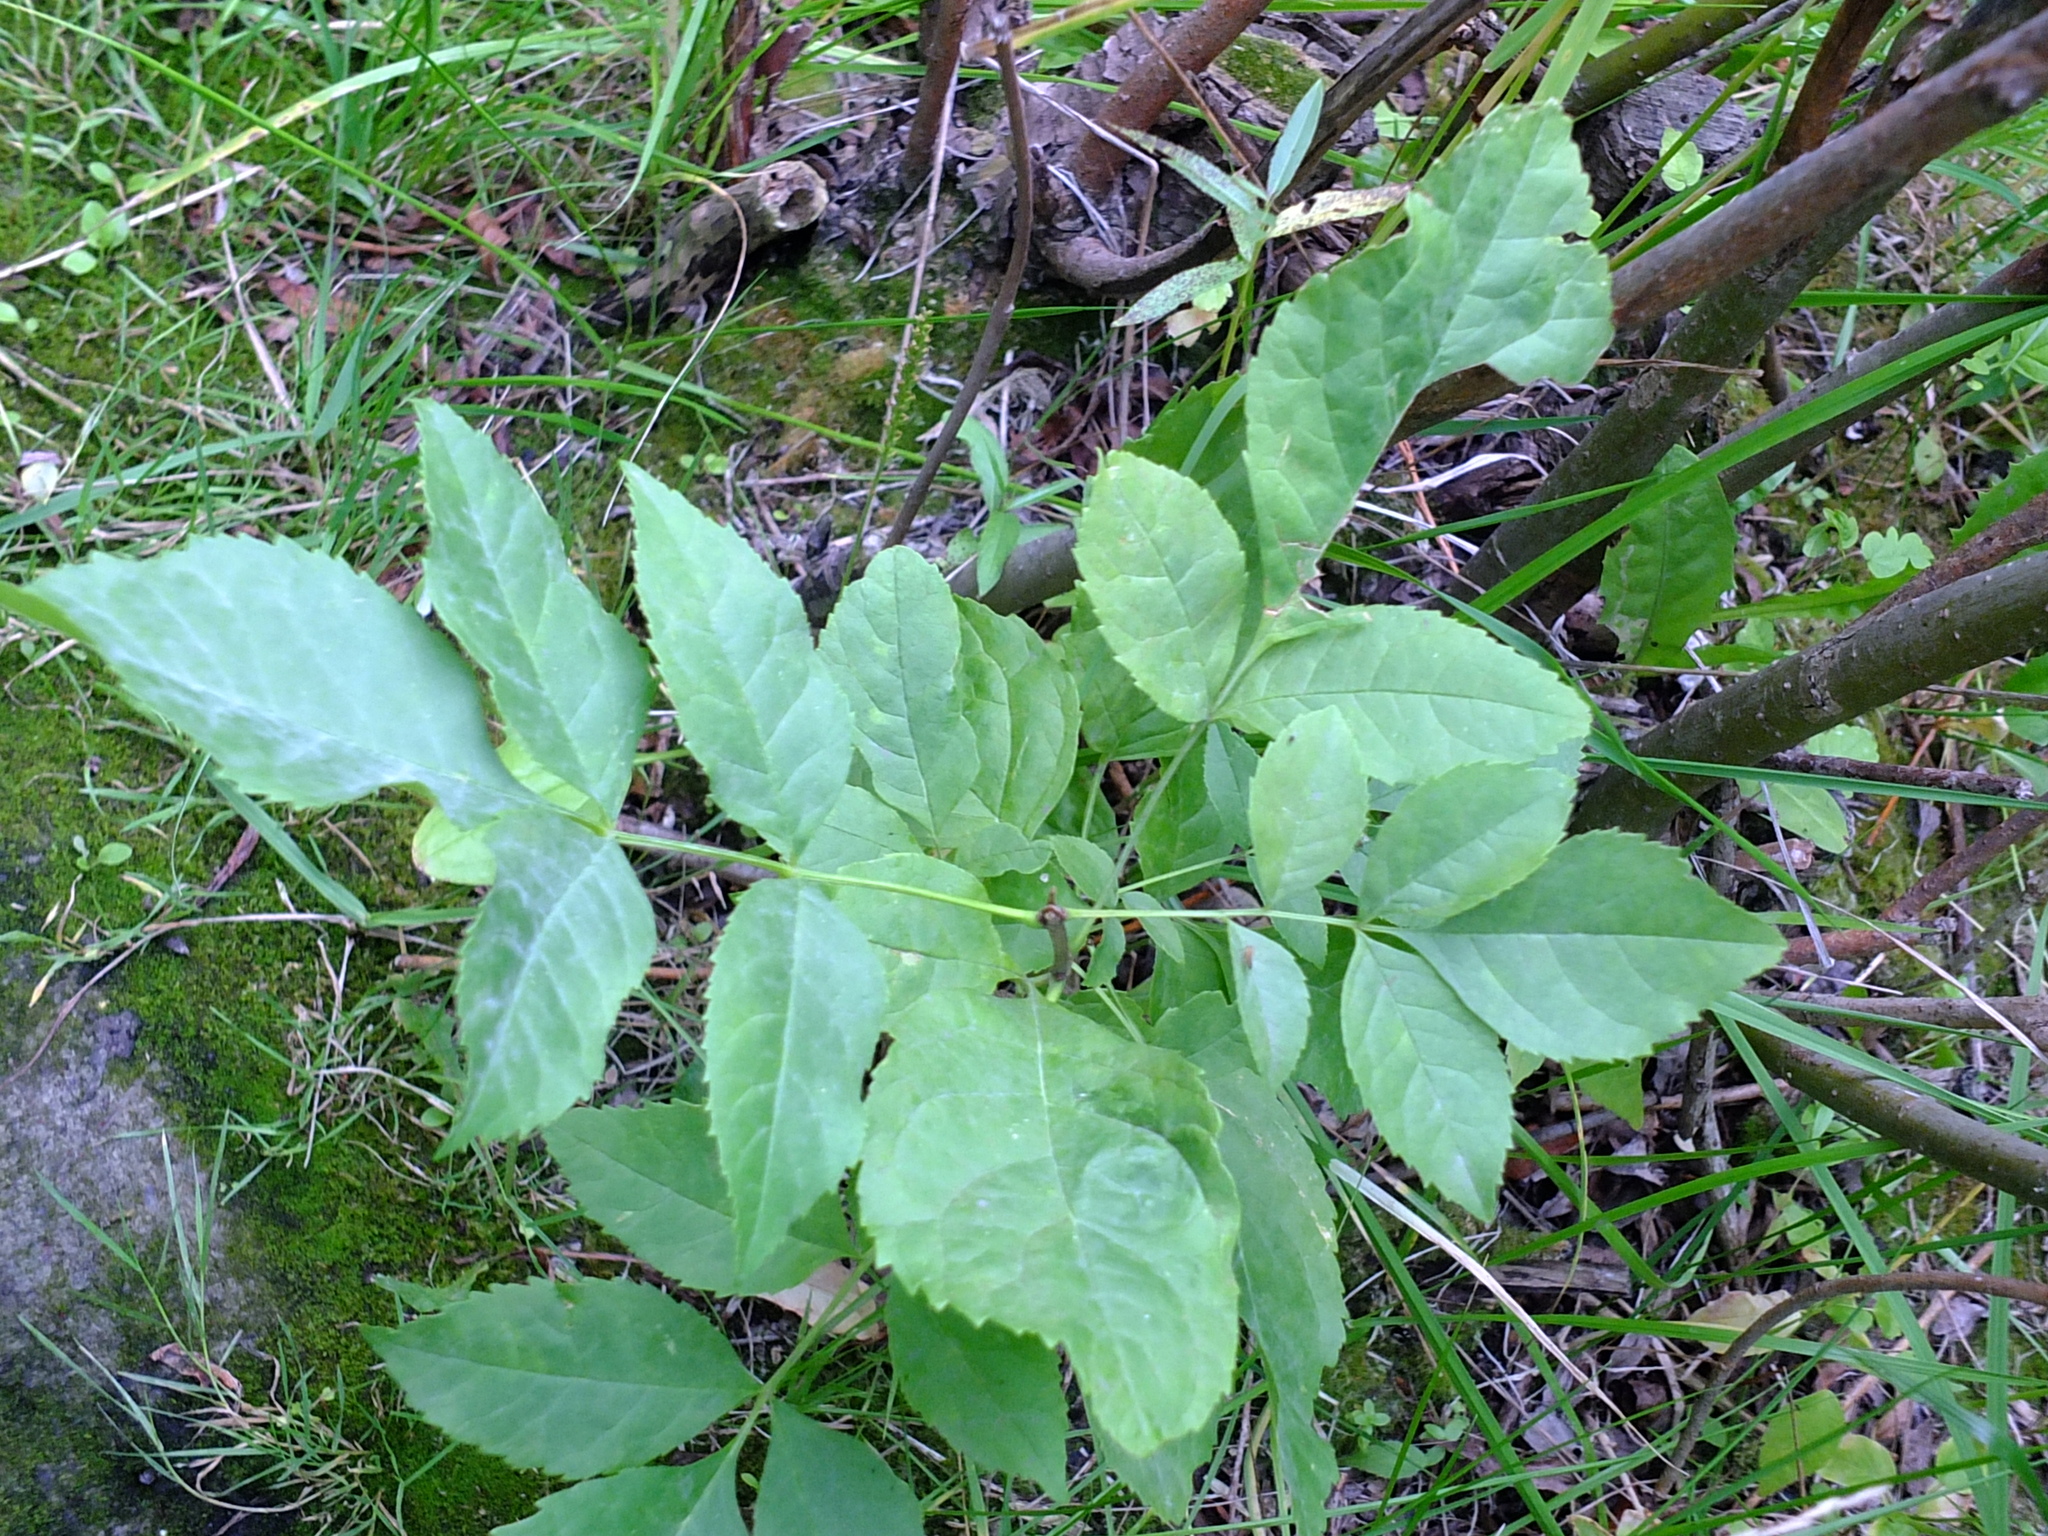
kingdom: Plantae
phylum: Tracheophyta
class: Magnoliopsida
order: Lamiales
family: Oleaceae
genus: Fraxinus
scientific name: Fraxinus pennsylvanica
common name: Green ash
